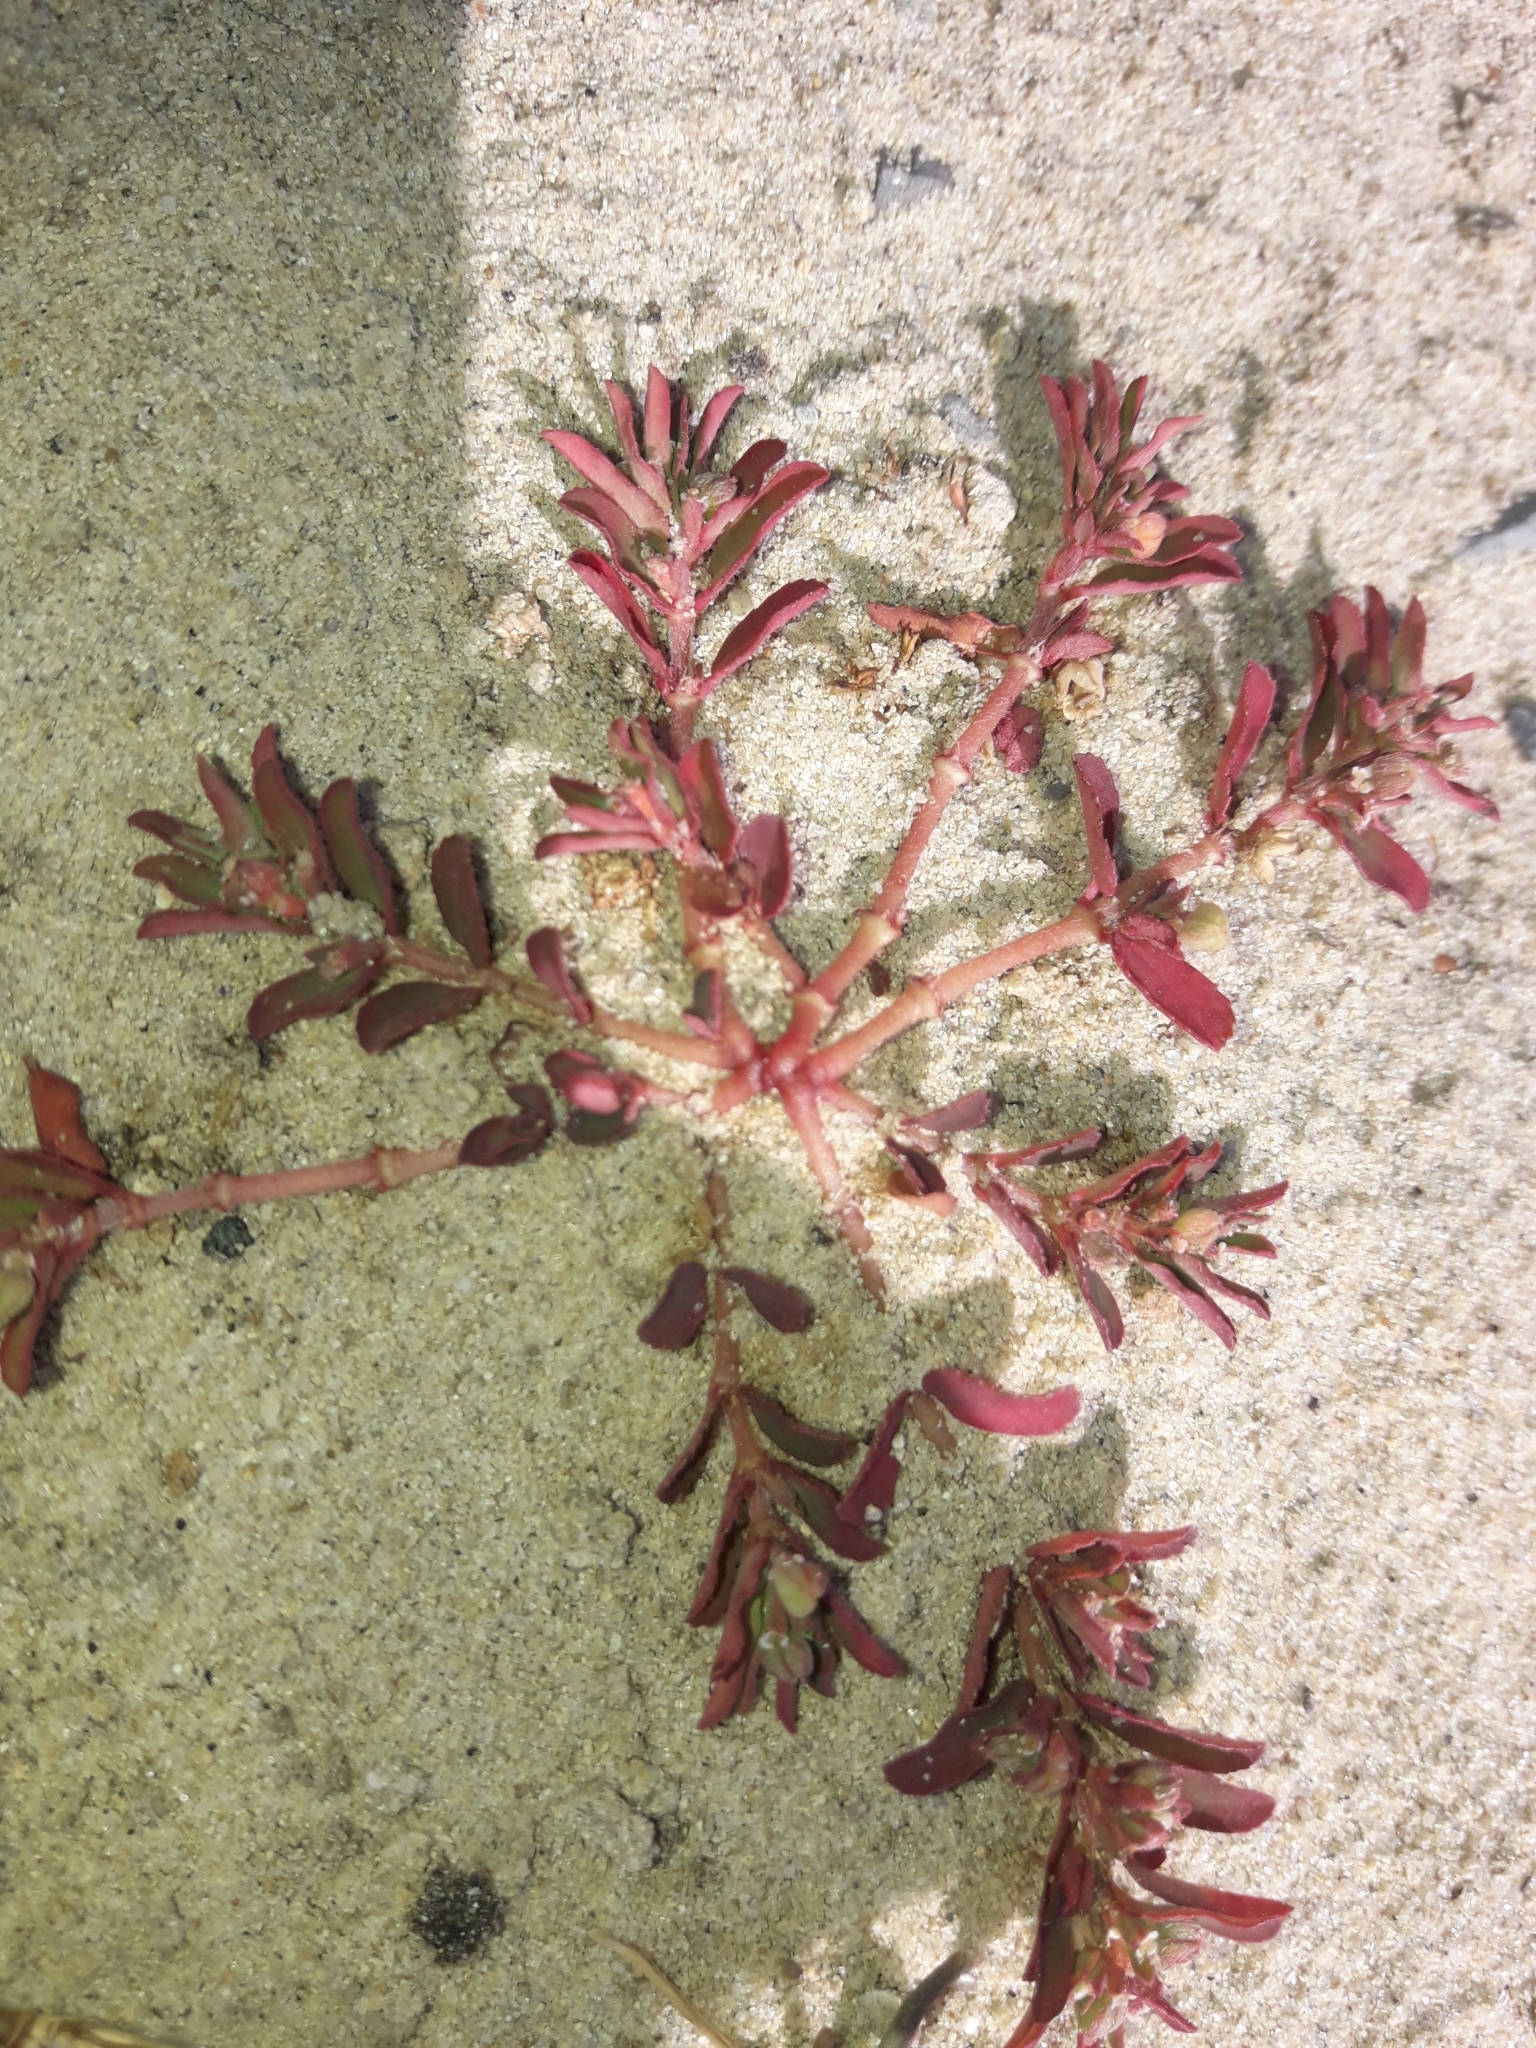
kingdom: Plantae
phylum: Tracheophyta
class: Magnoliopsida
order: Malpighiales
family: Euphorbiaceae
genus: Euphorbia
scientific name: Euphorbia maculata
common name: Spotted spurge
